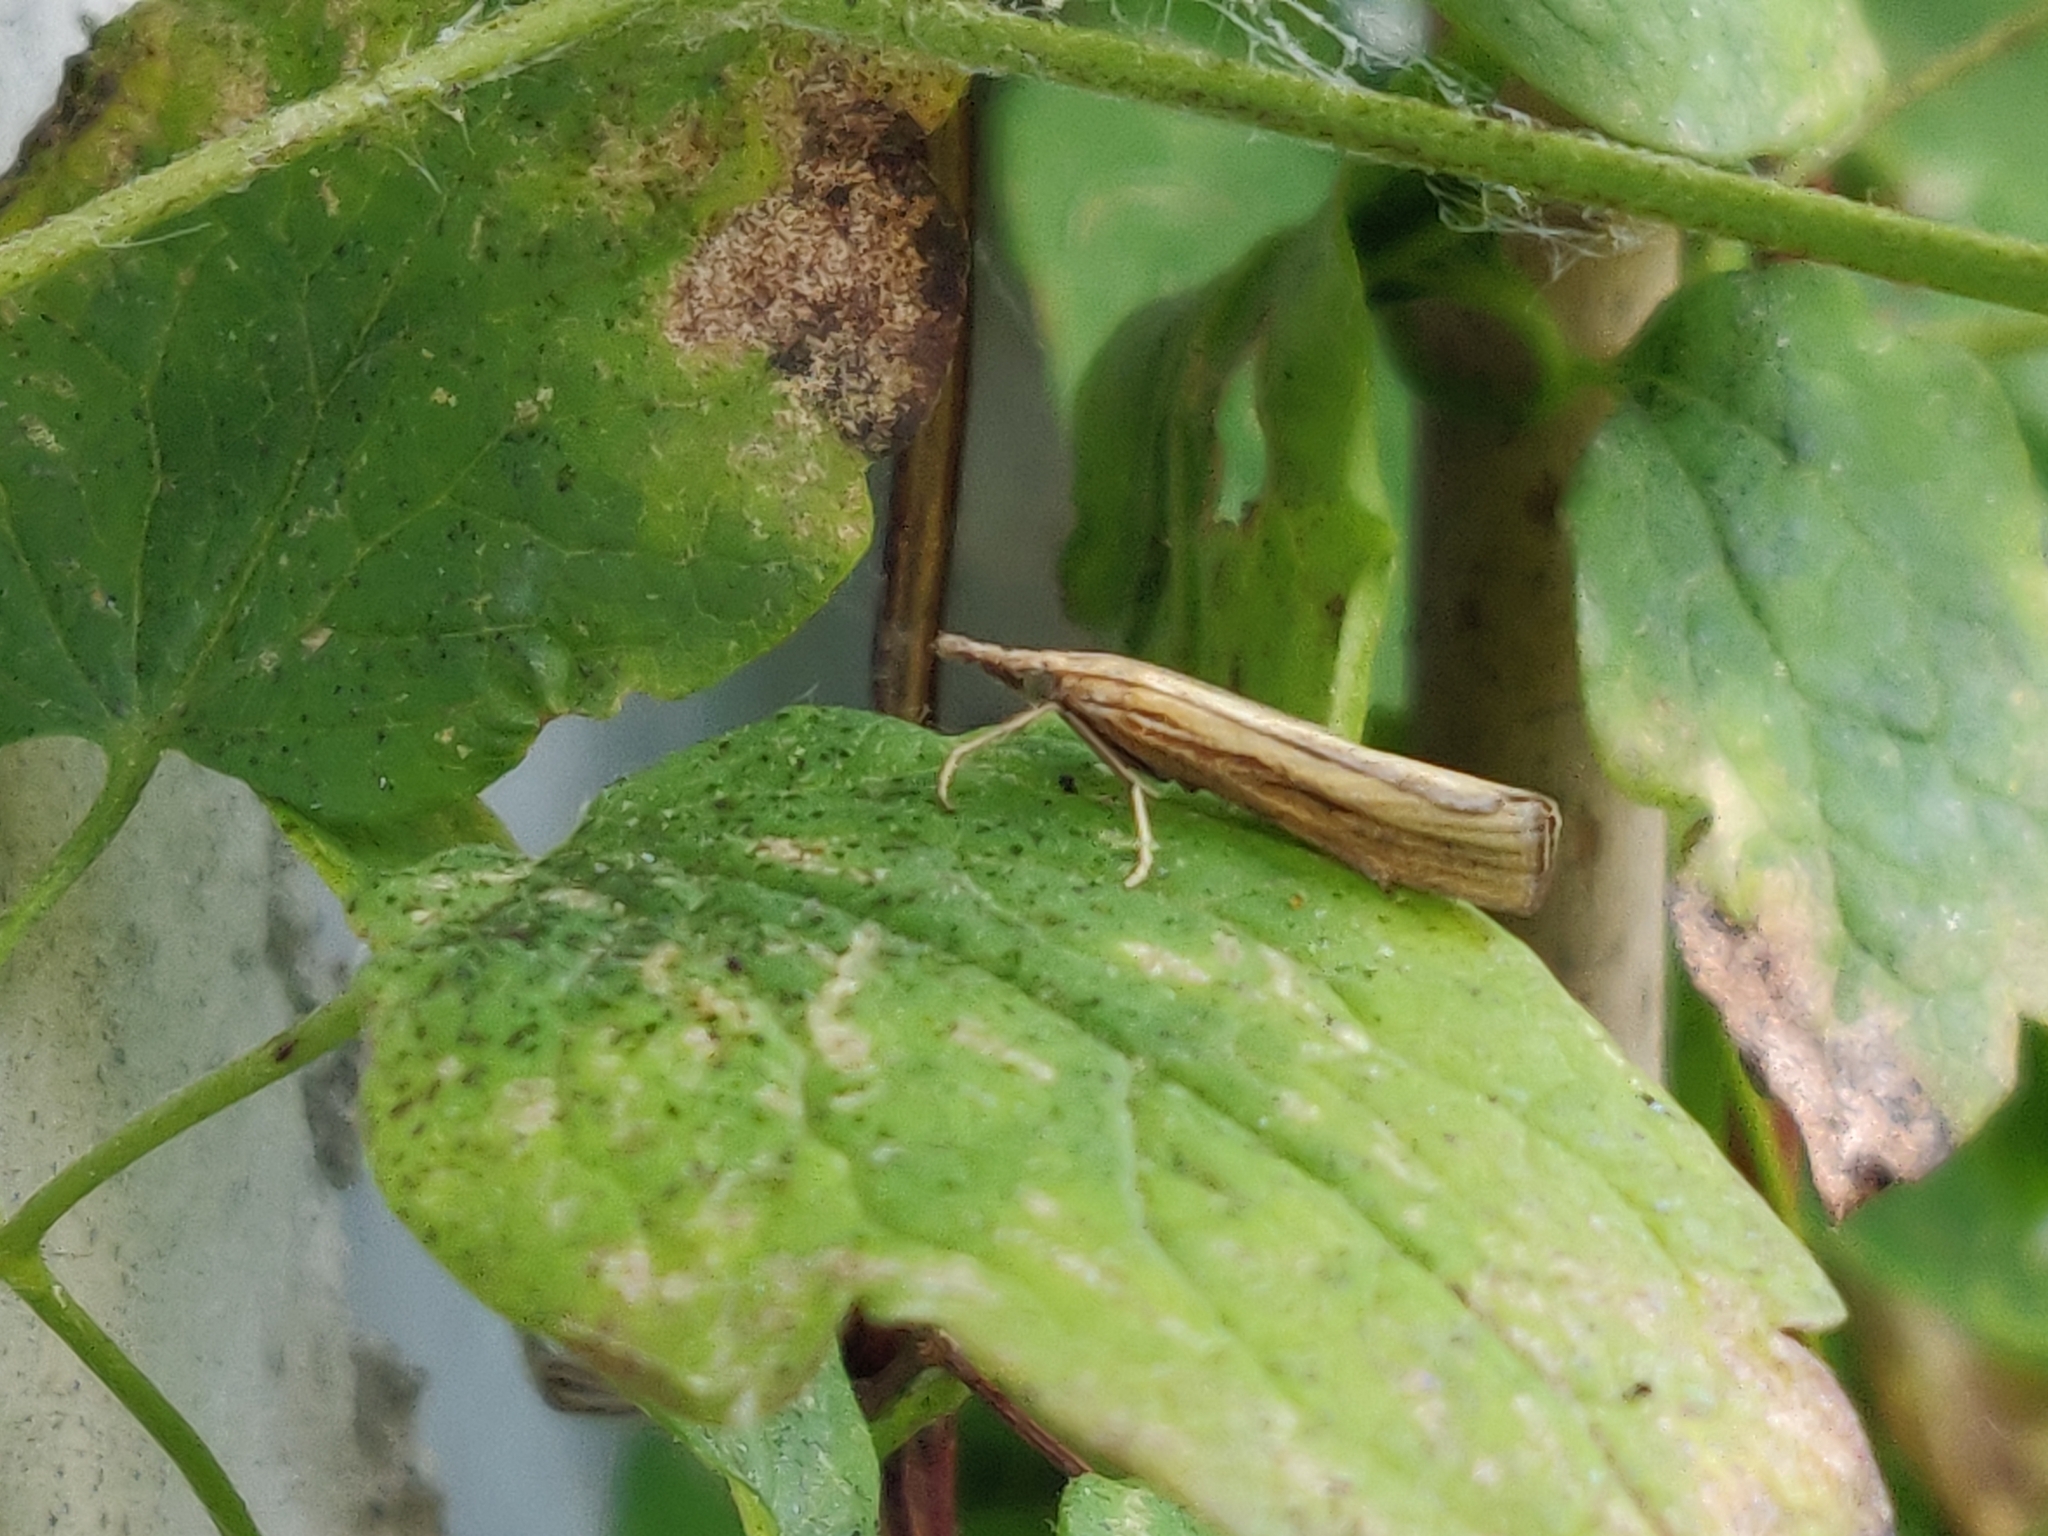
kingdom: Animalia
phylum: Arthropoda
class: Insecta
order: Lepidoptera
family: Crambidae
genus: Agriphila
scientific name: Agriphila tristellus
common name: Common grass-veneer
